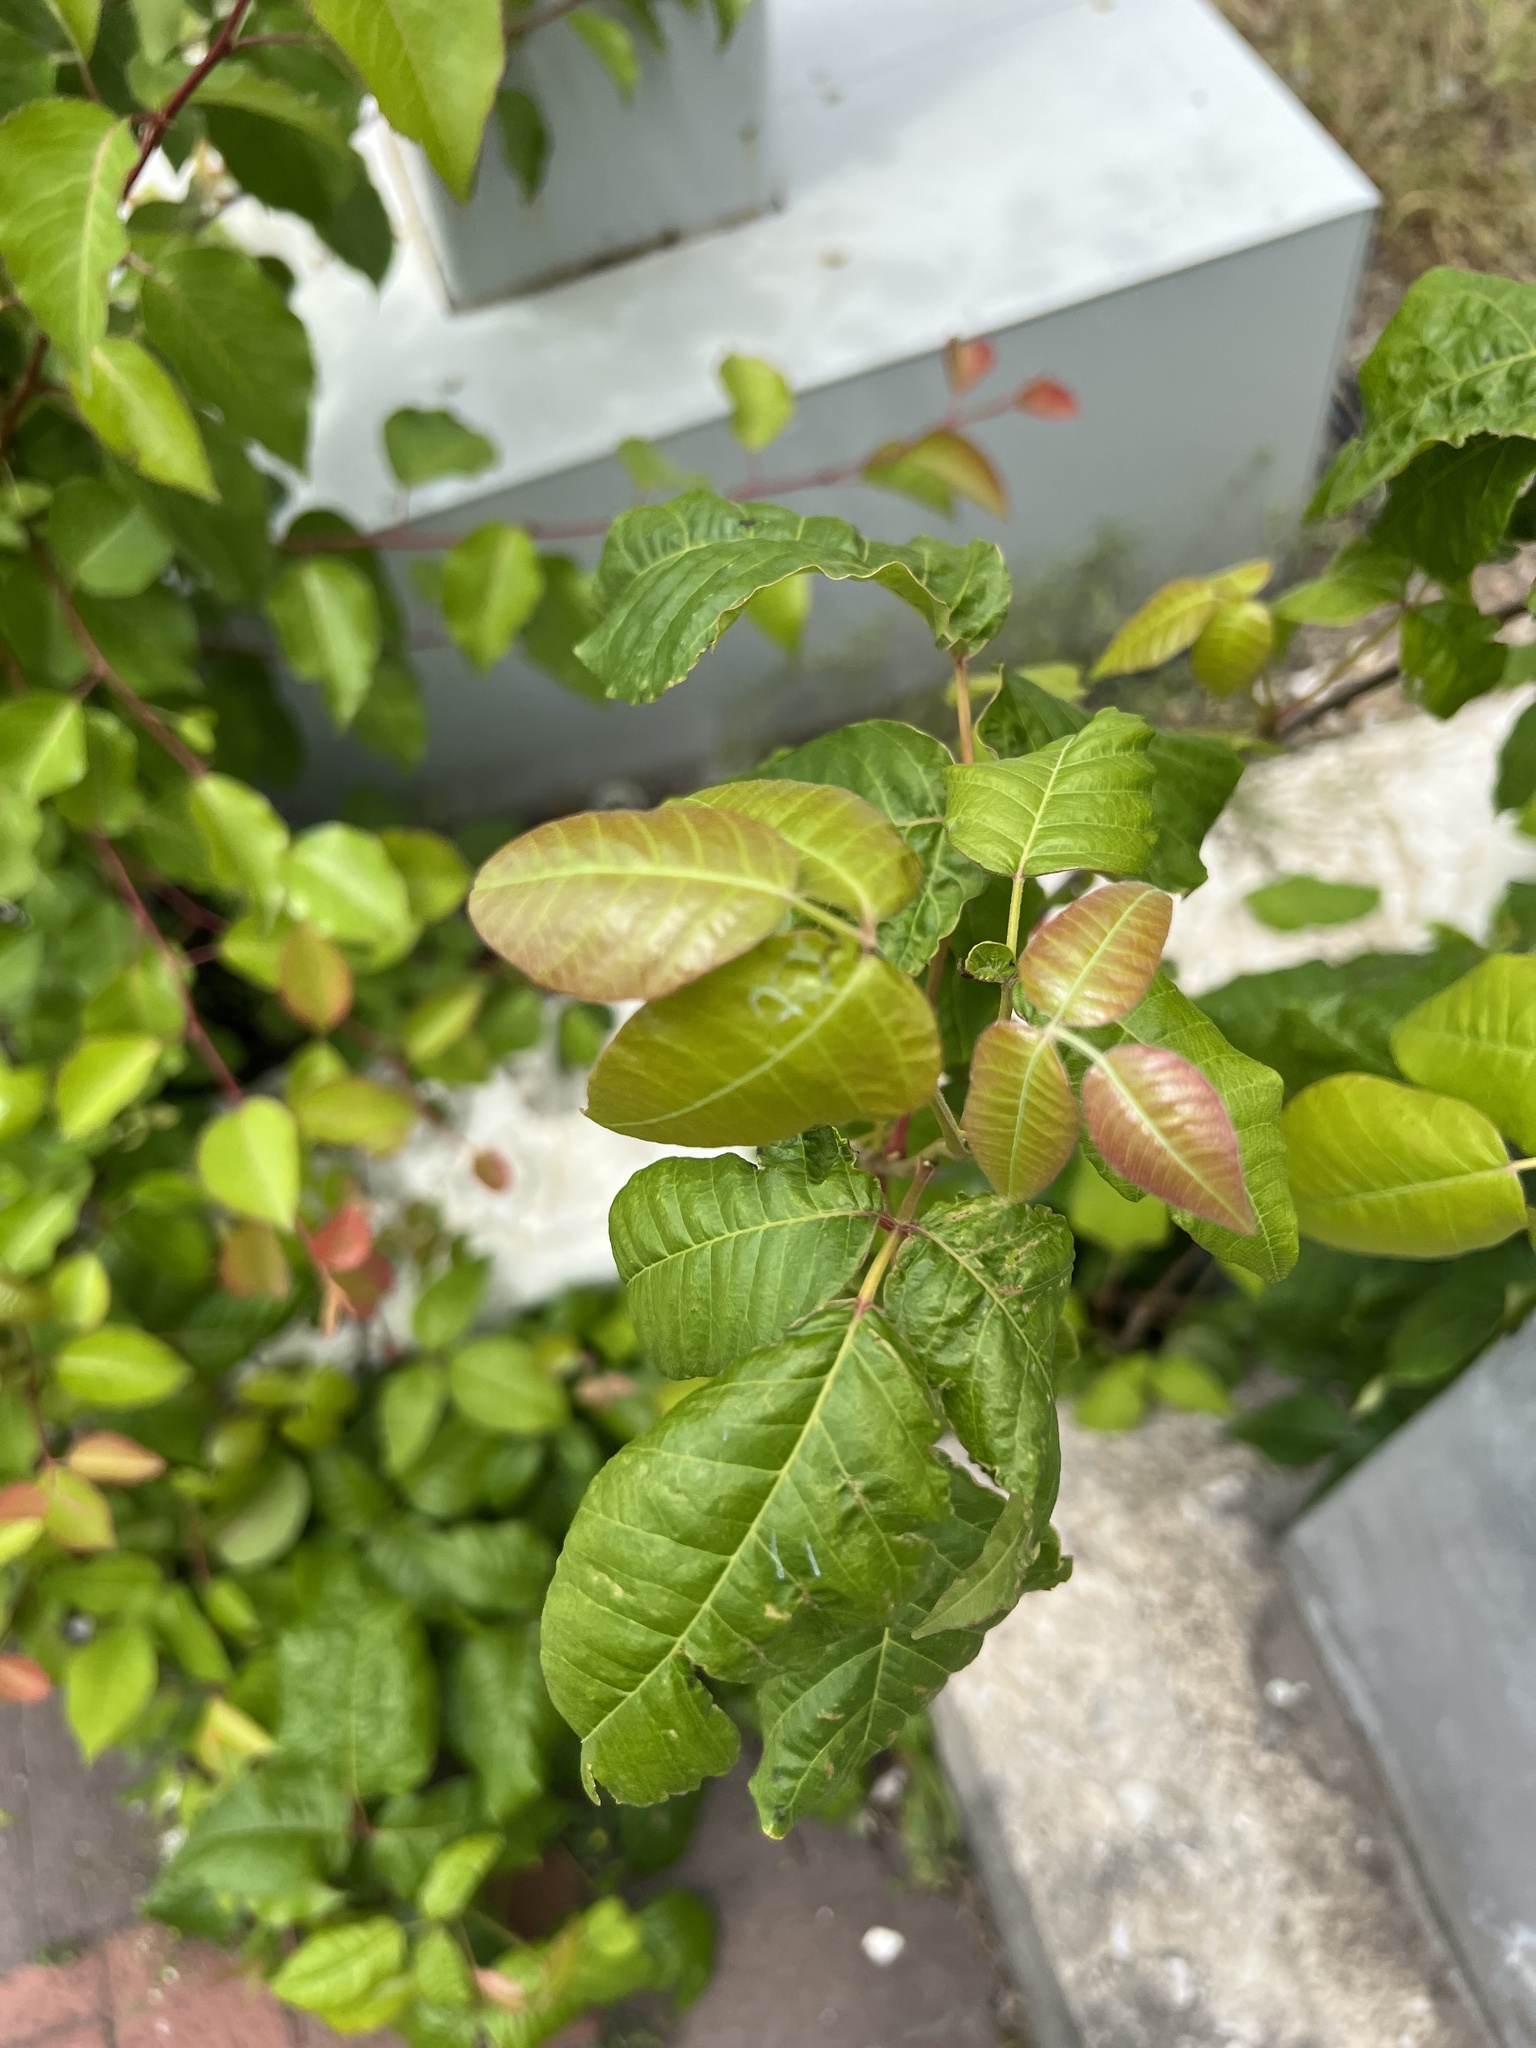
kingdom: Plantae
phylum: Tracheophyta
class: Magnoliopsida
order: Sapindales
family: Anacardiaceae
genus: Toxicodendron
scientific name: Toxicodendron radicans
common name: Poison ivy
